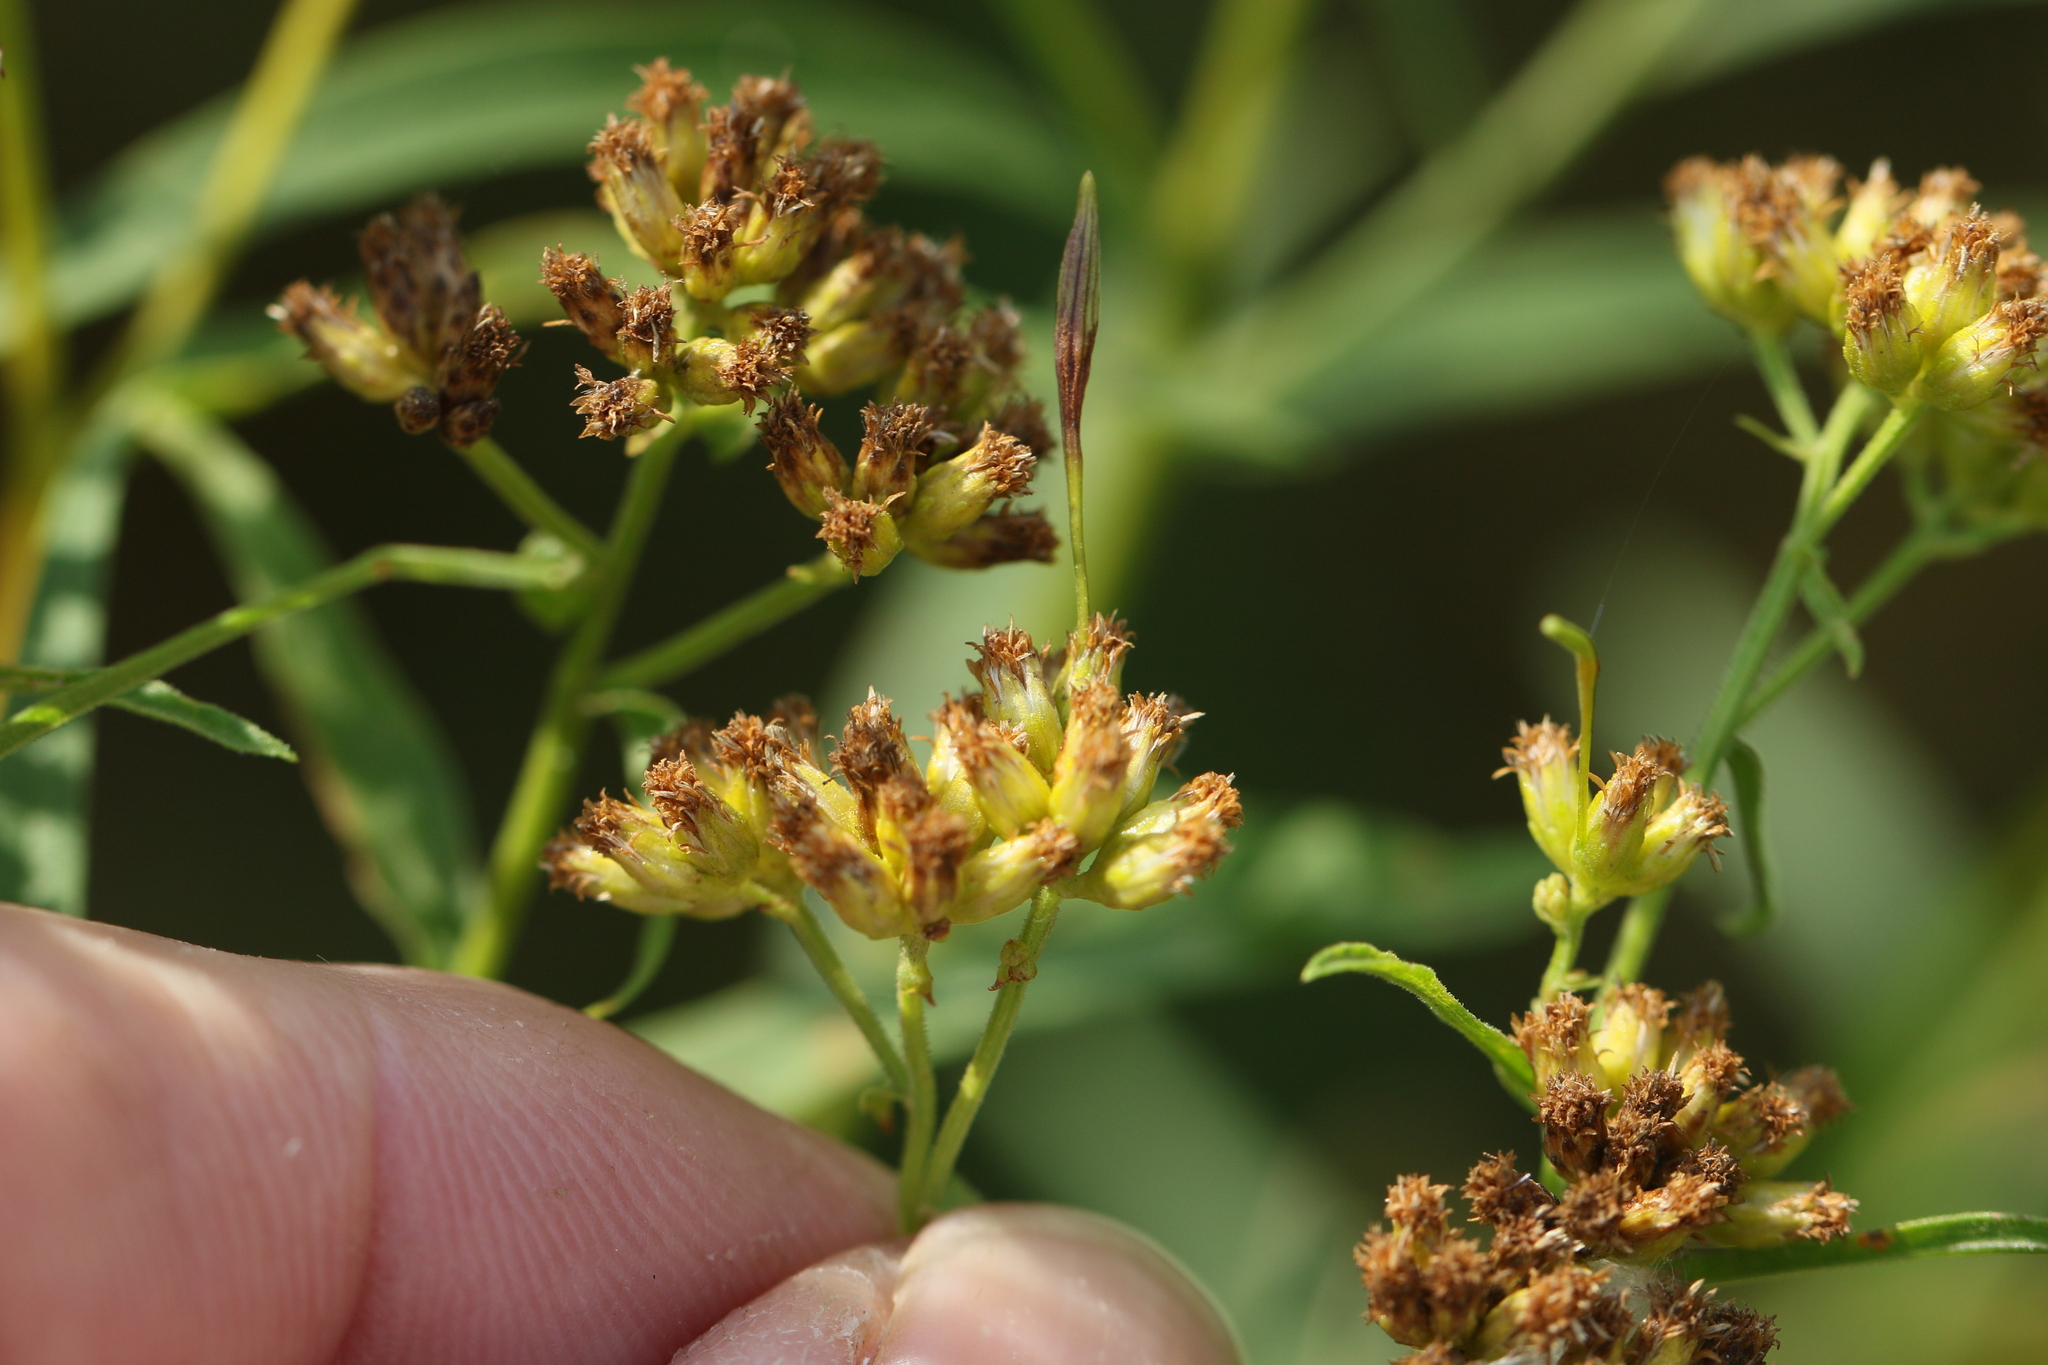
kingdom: Animalia
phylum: Arthropoda
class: Insecta
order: Diptera
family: Cecidomyiidae
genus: Rhopalomyia
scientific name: Rhopalomyia pedicellata
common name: Goldentop pedicellate gall midge
